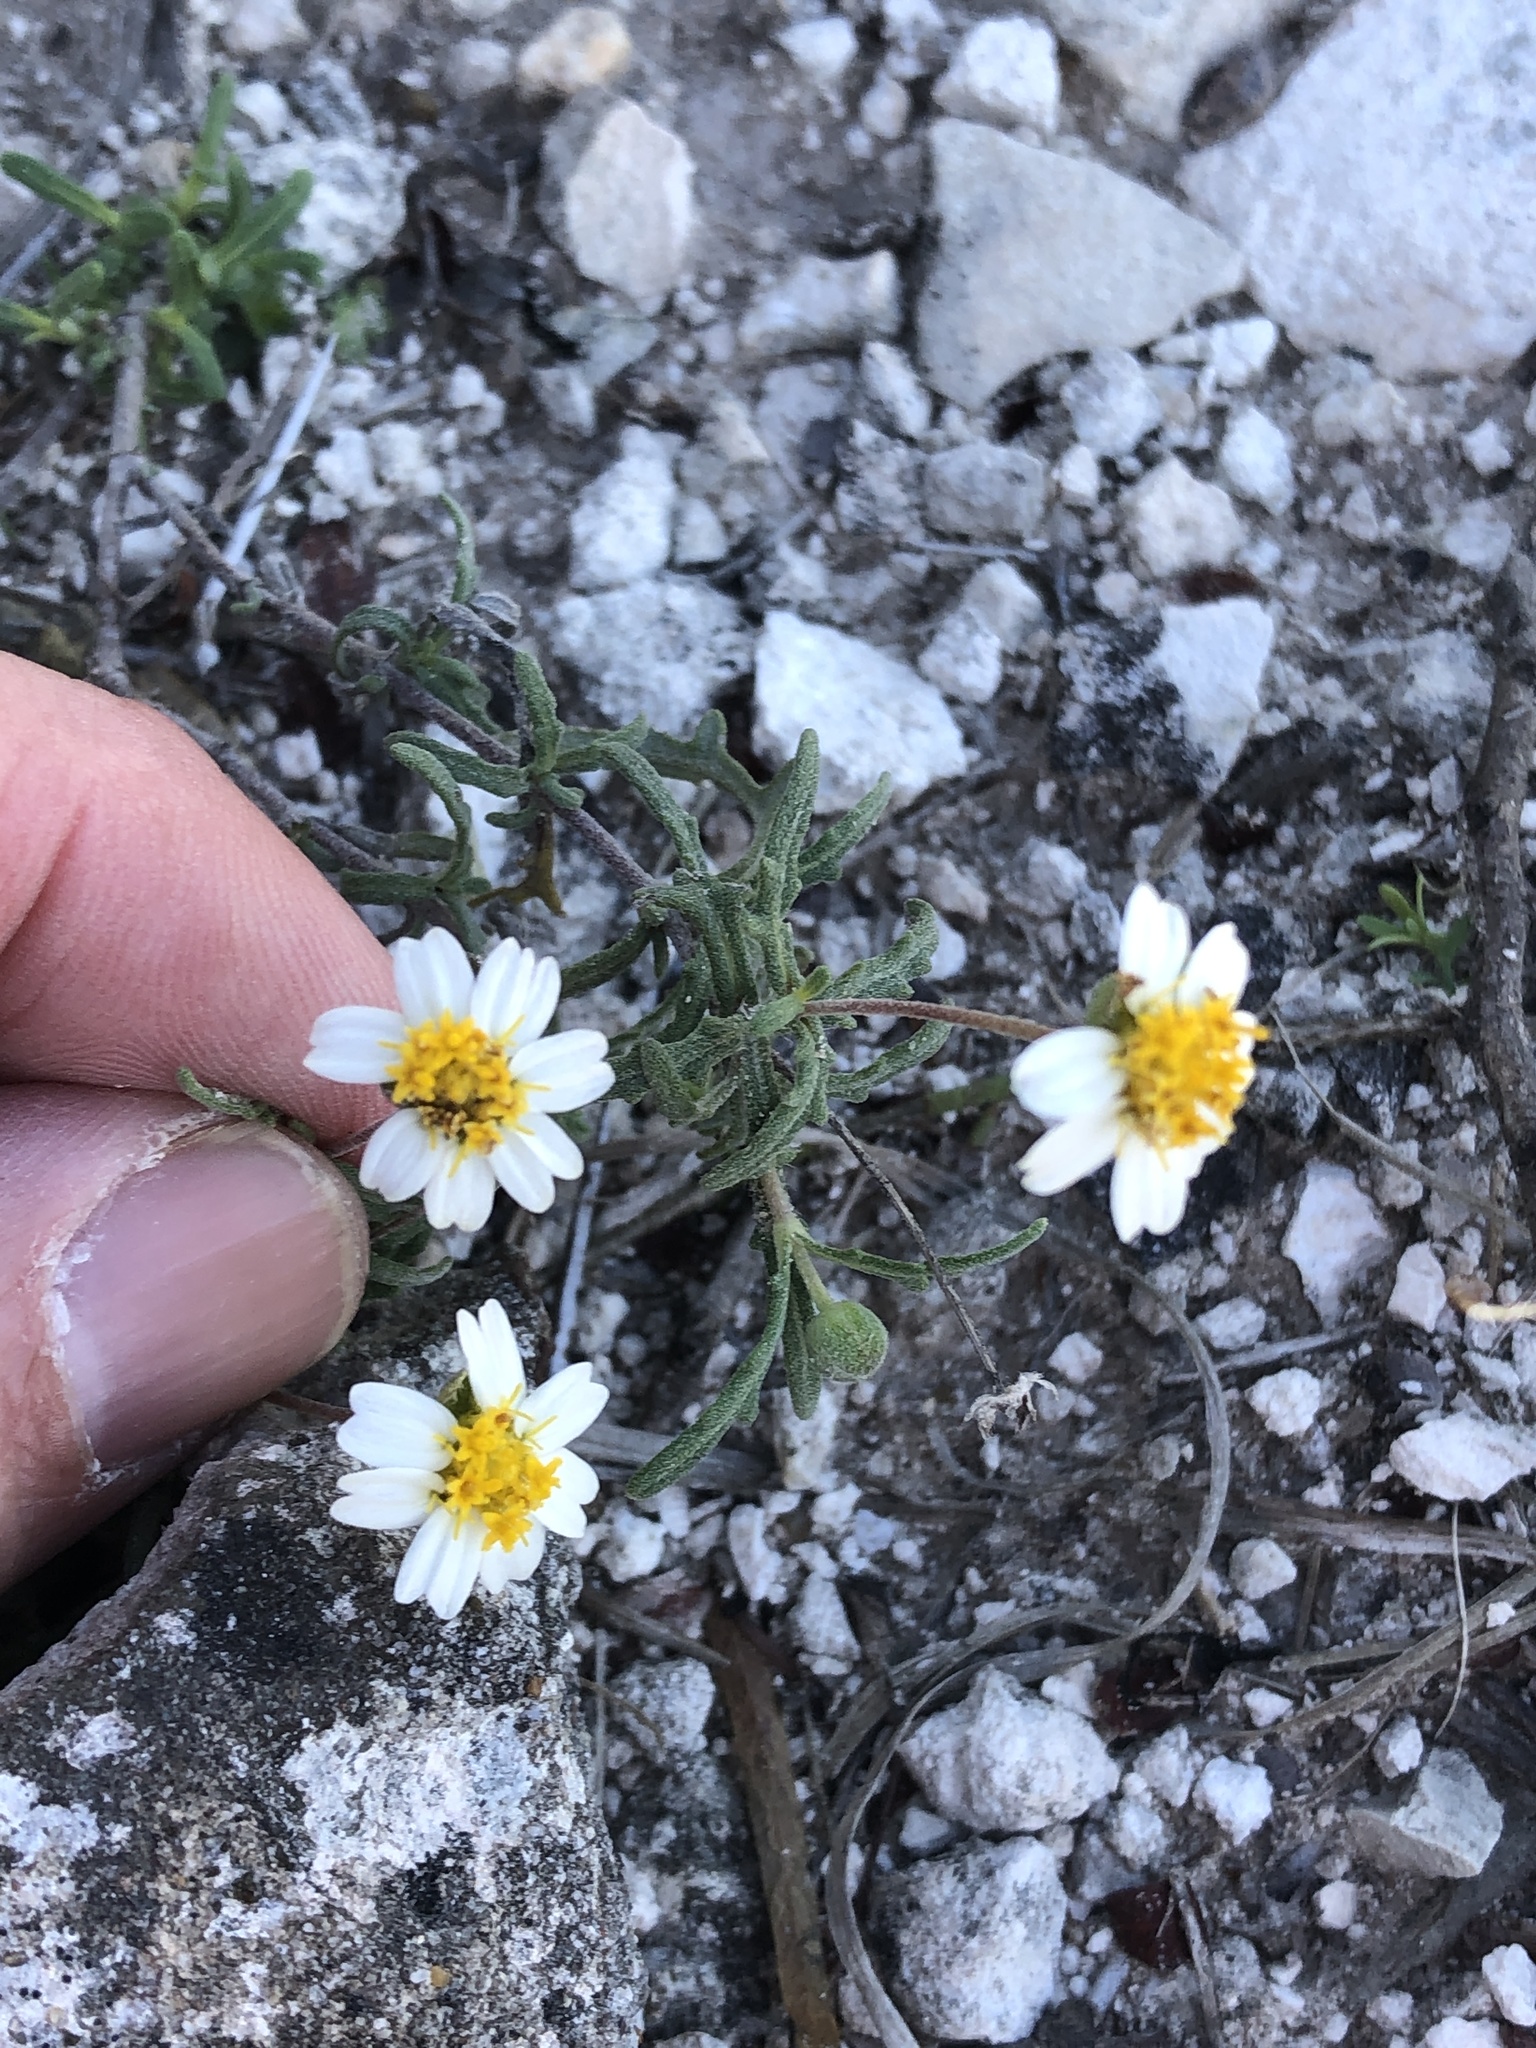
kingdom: Plantae
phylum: Tracheophyta
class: Magnoliopsida
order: Asterales
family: Asteraceae
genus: Melampodium
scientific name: Melampodium cinereum
